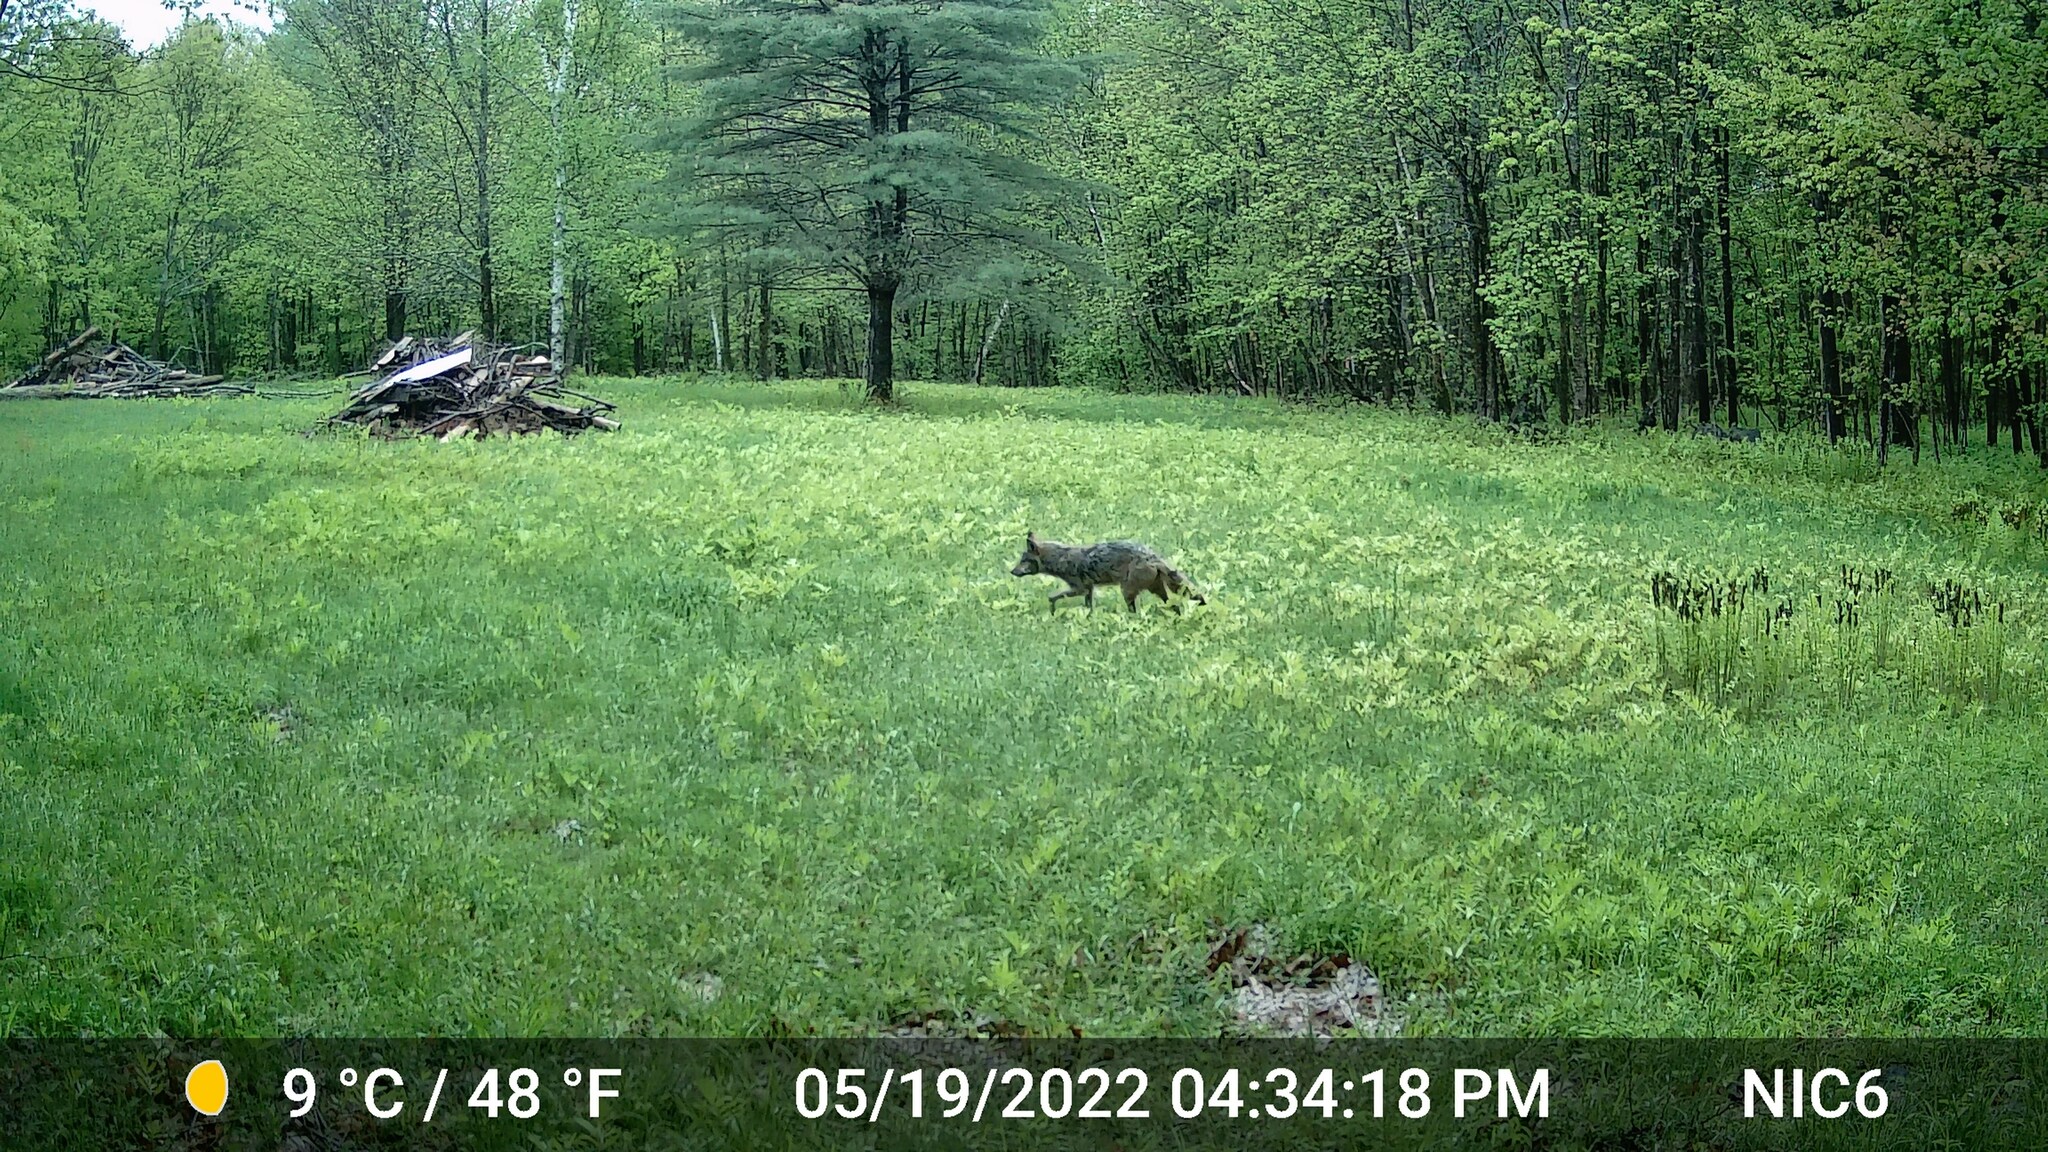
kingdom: Animalia
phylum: Chordata
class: Mammalia
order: Carnivora
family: Canidae
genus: Canis
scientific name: Canis latrans
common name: Coyote
